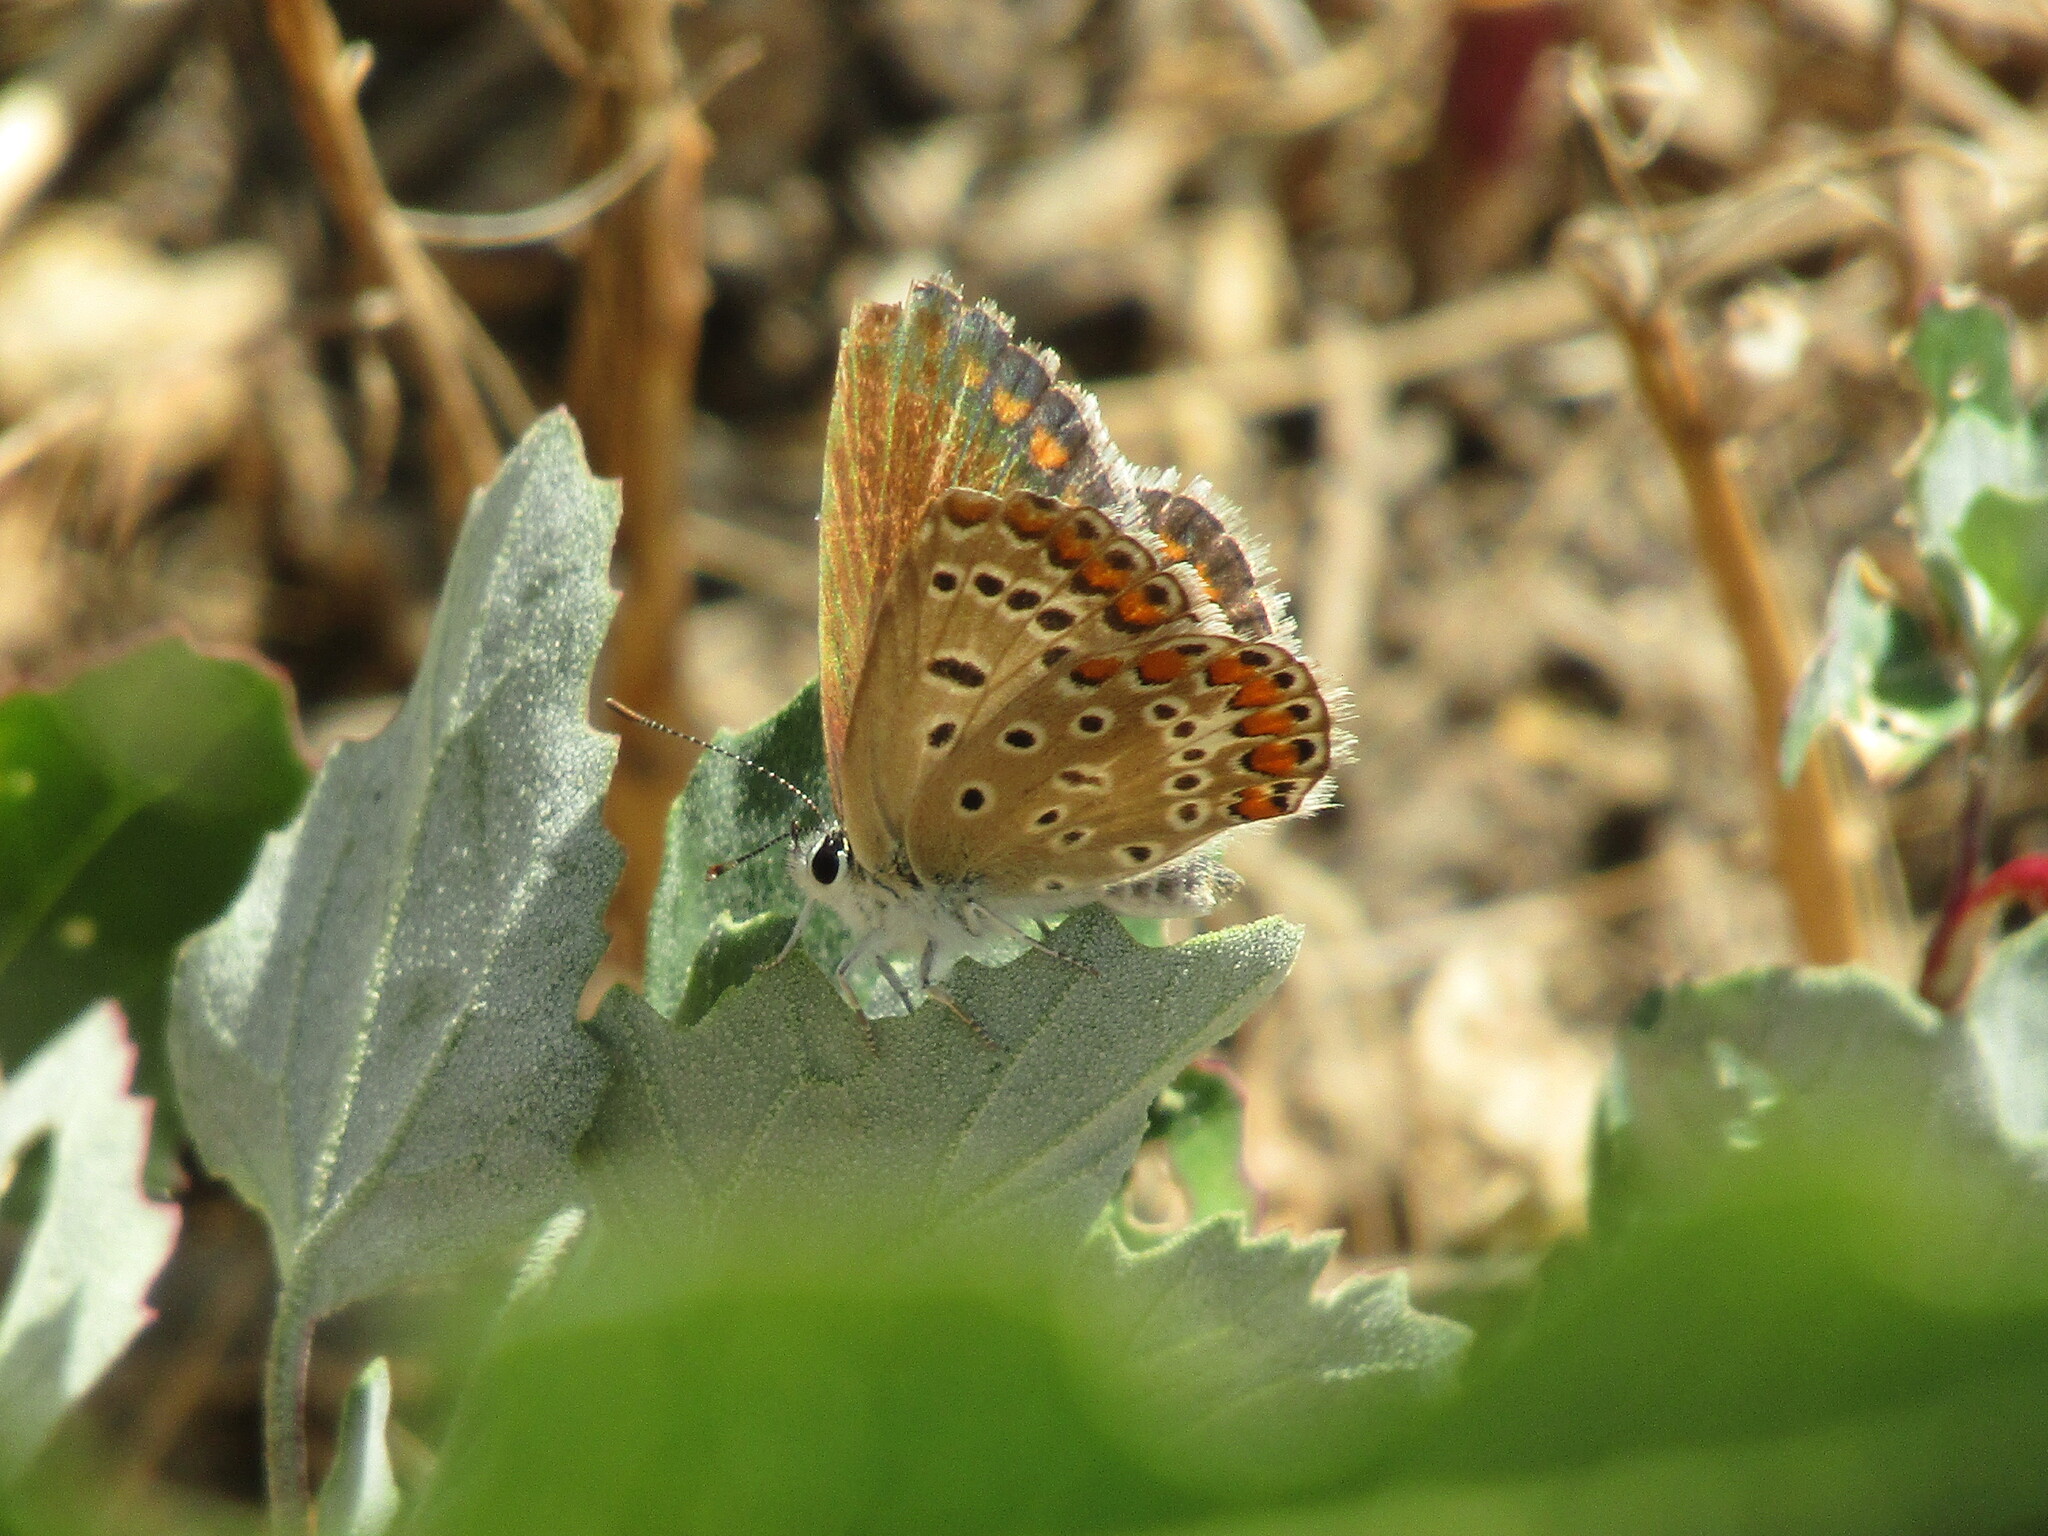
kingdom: Animalia
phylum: Arthropoda
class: Insecta
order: Lepidoptera
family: Lycaenidae
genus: Polyommatus
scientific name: Polyommatus icarus
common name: Common blue
